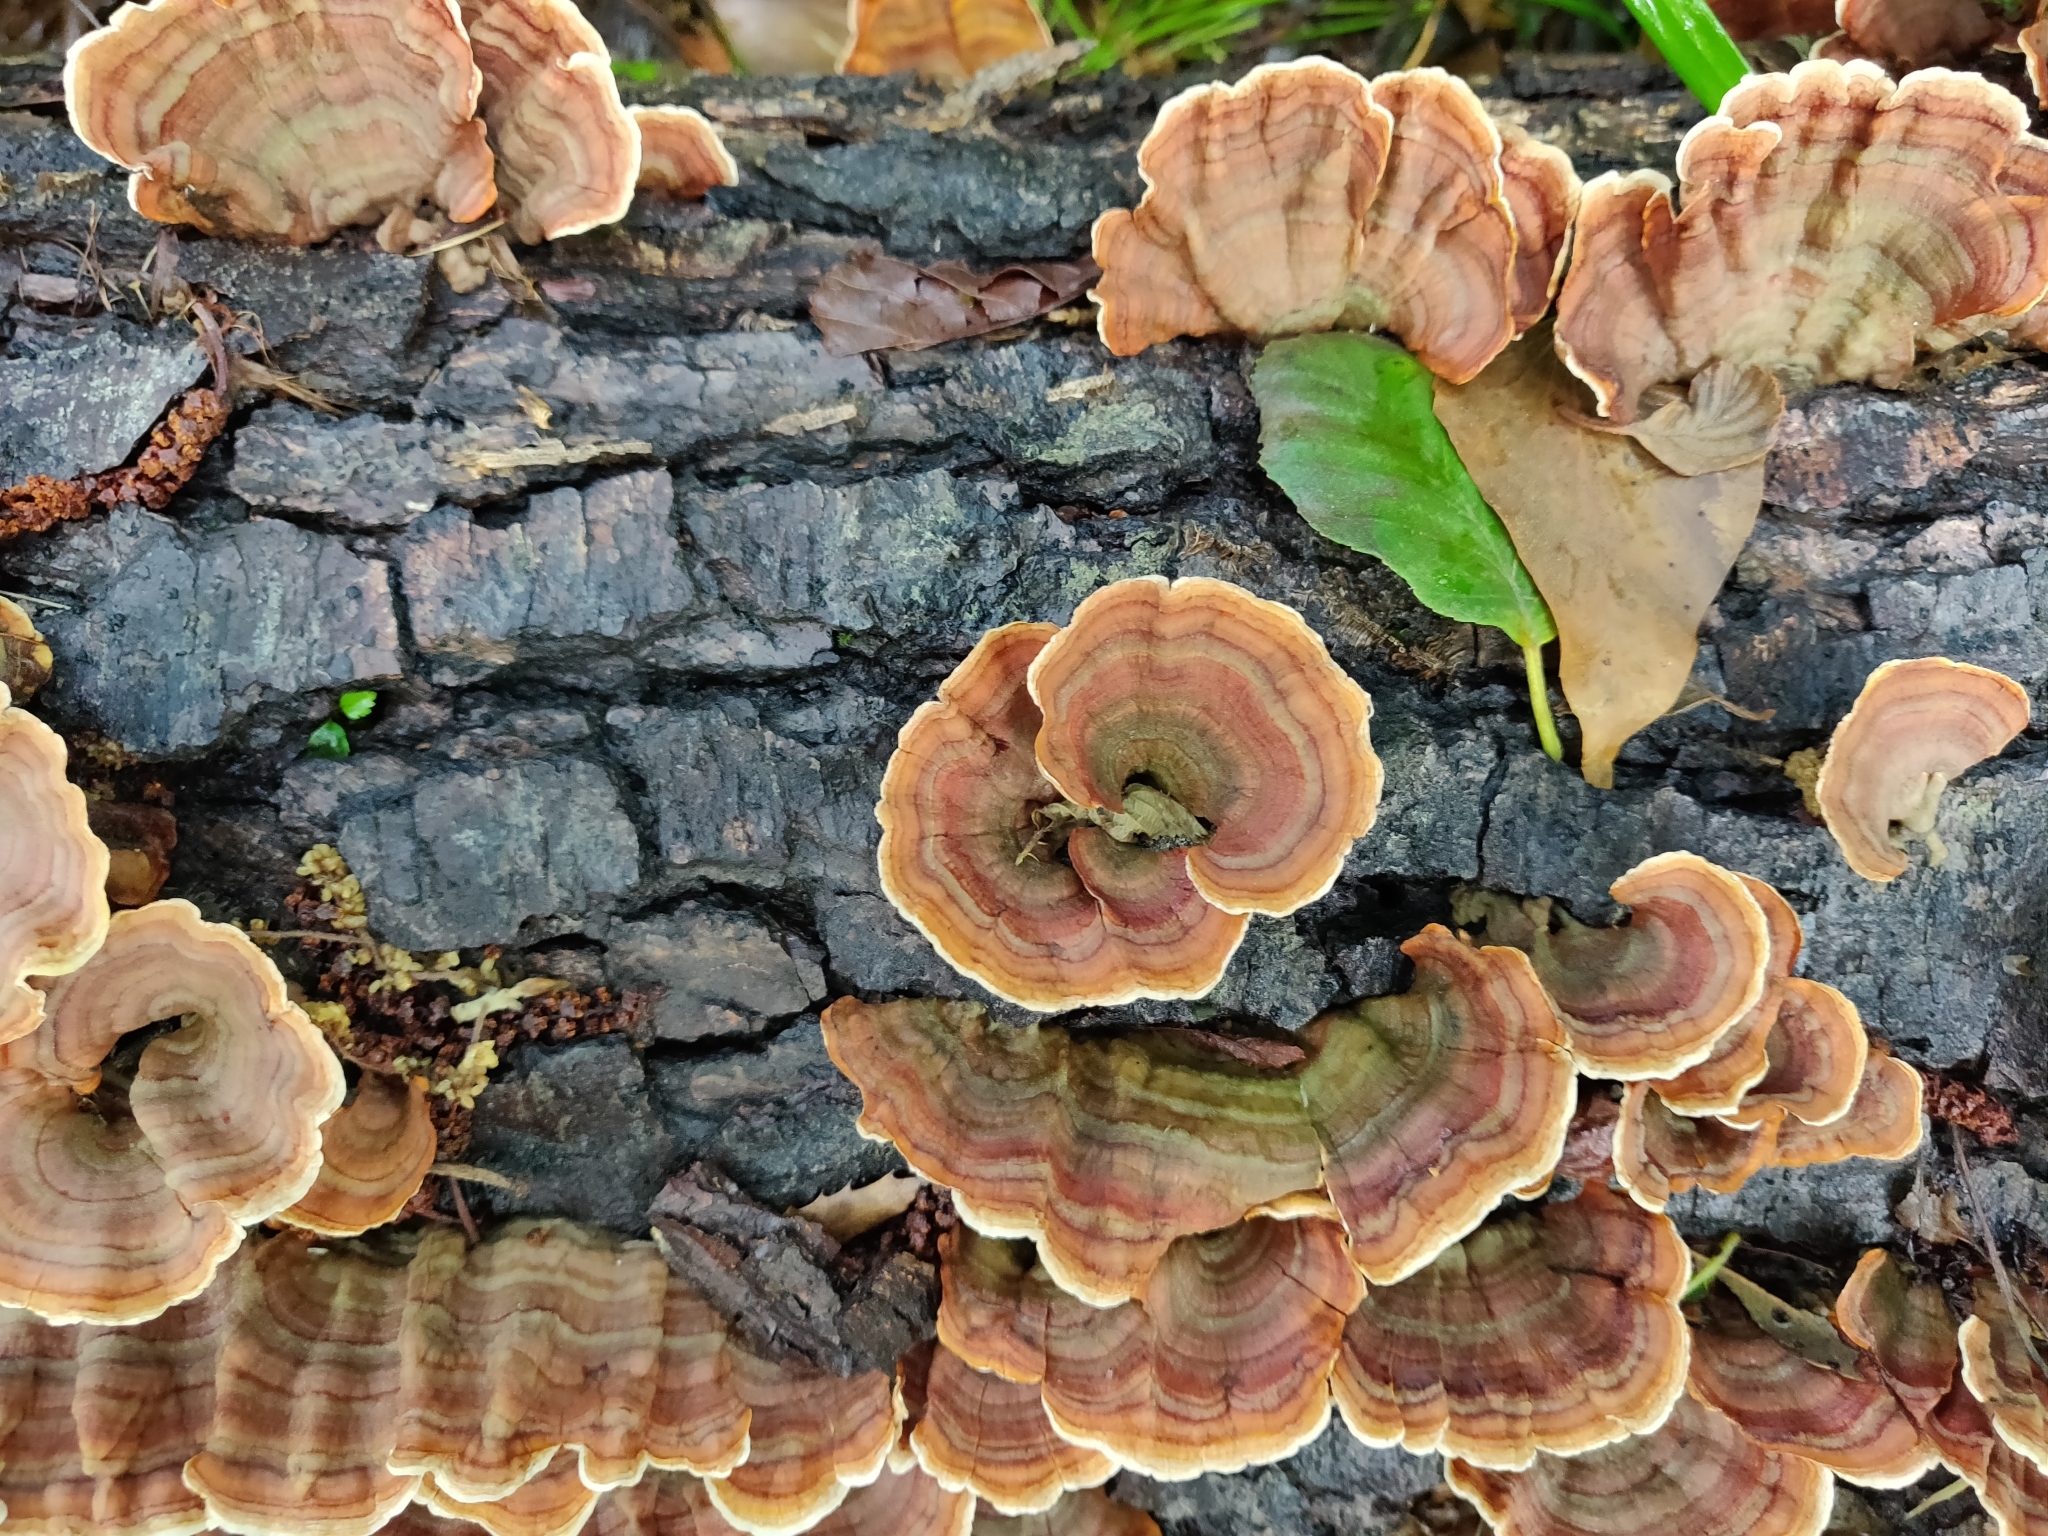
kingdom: Fungi
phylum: Basidiomycota
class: Agaricomycetes
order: Russulales
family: Stereaceae
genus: Stereum
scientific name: Stereum subtomentosum
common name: Yellowing curtain crust
